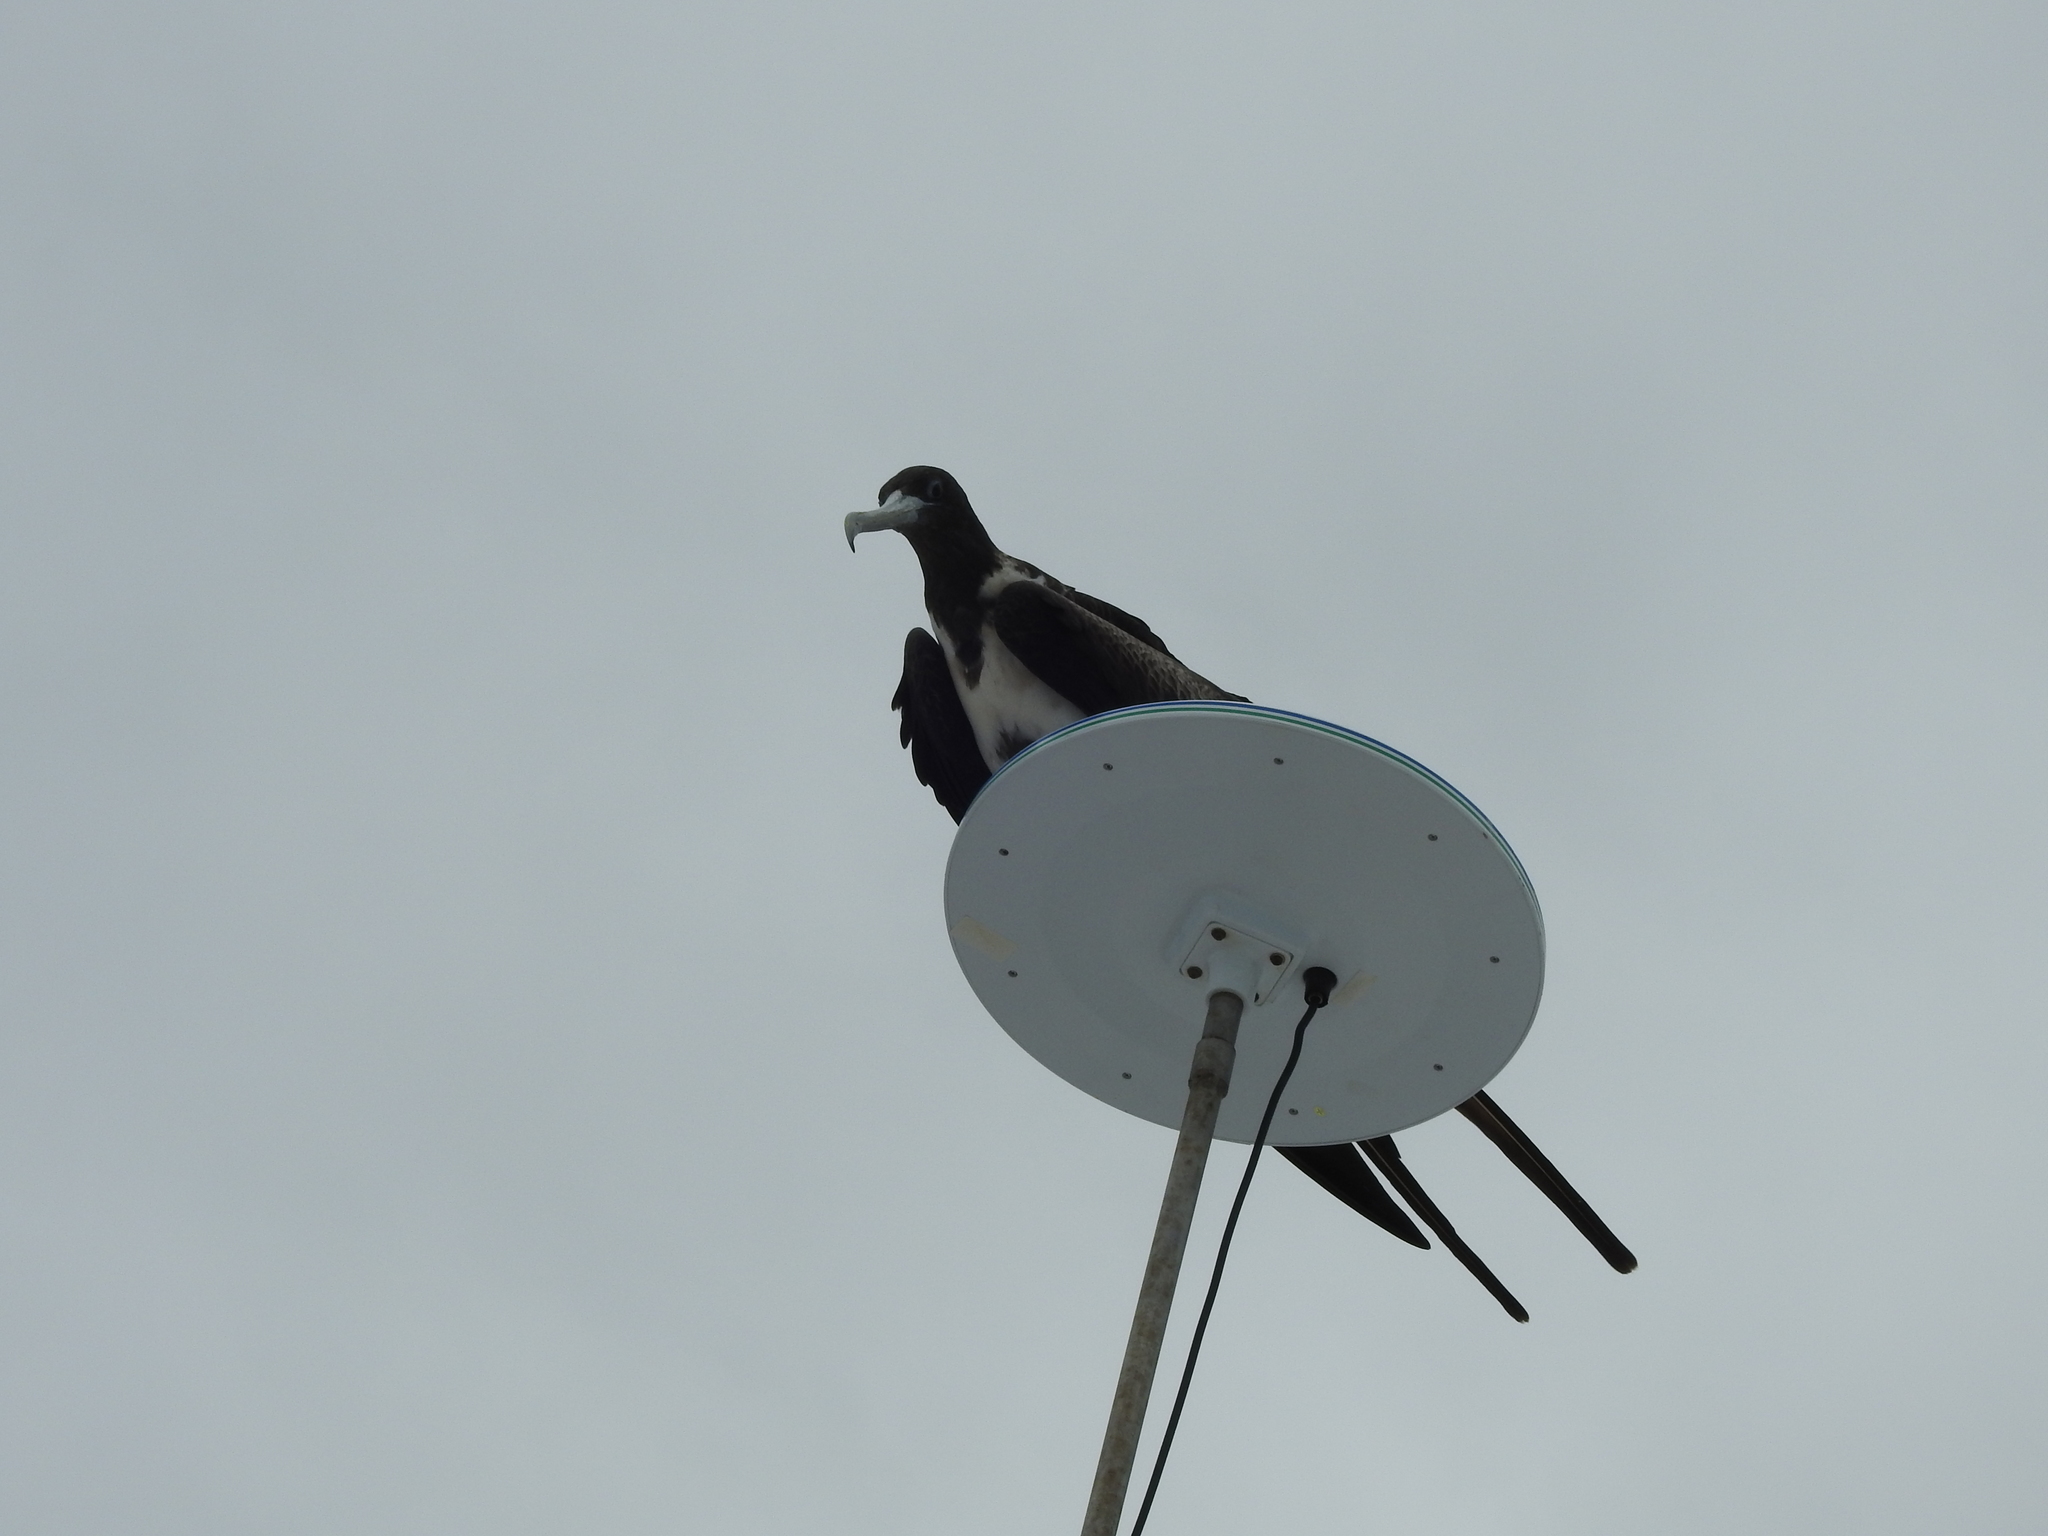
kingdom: Animalia
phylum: Chordata
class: Aves
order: Suliformes
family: Fregatidae
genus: Fregata
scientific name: Fregata magnificens
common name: Magnificent frigatebird
